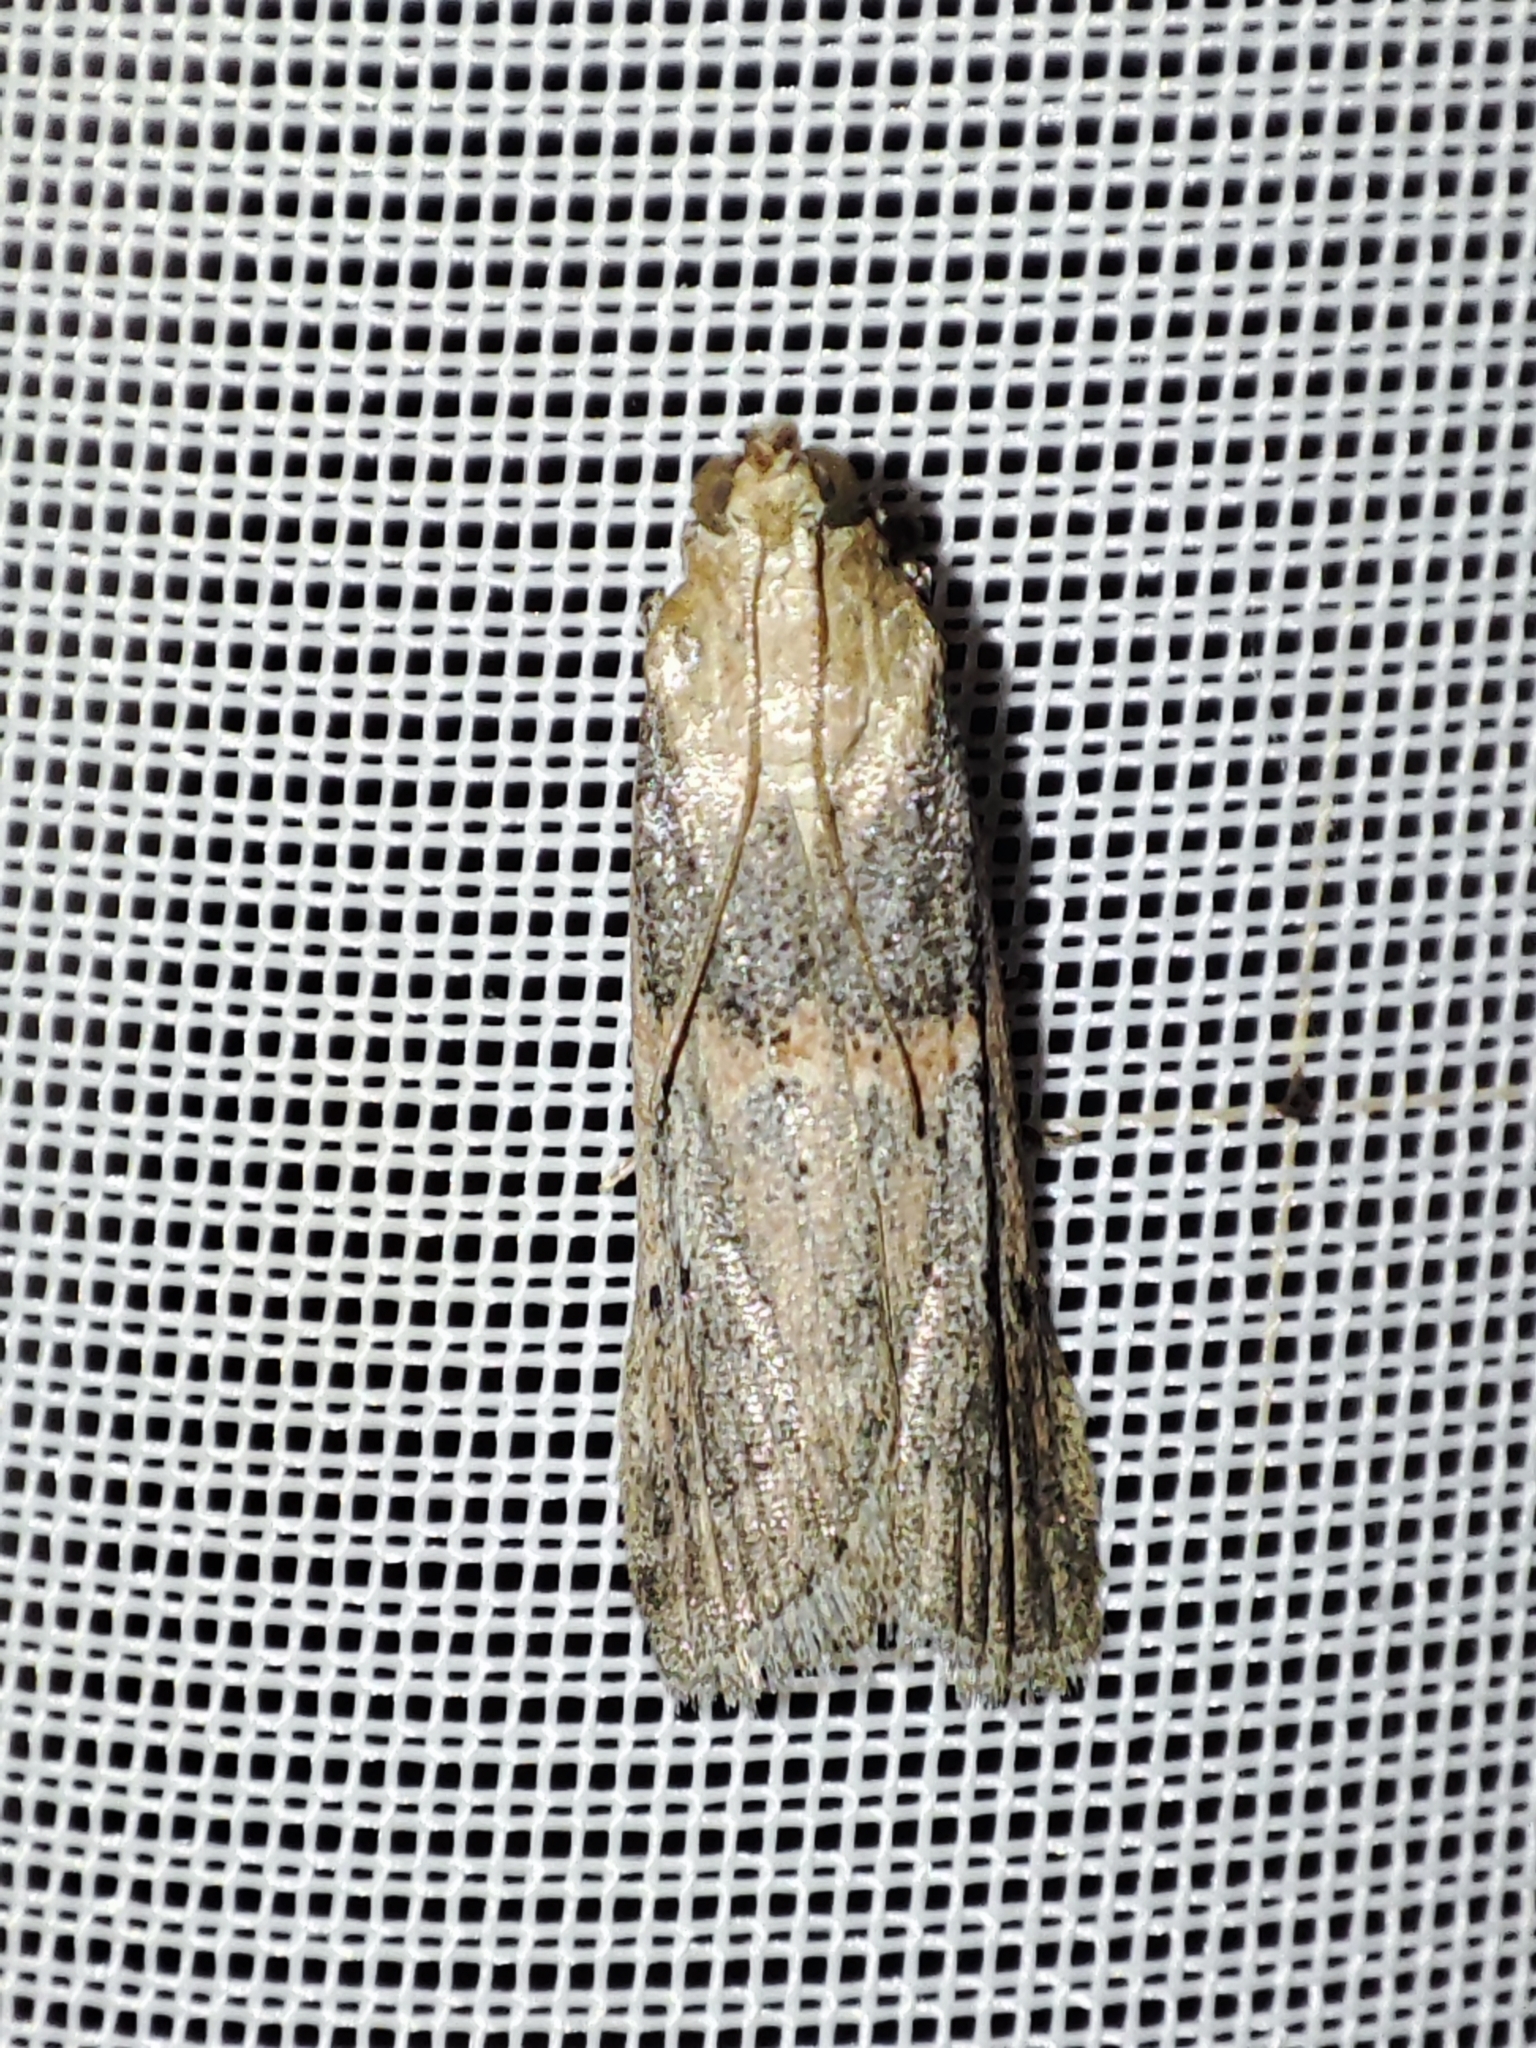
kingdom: Animalia
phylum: Arthropoda
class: Insecta
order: Lepidoptera
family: Pyralidae
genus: Gymnancyla
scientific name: Gymnancyla hornigii
